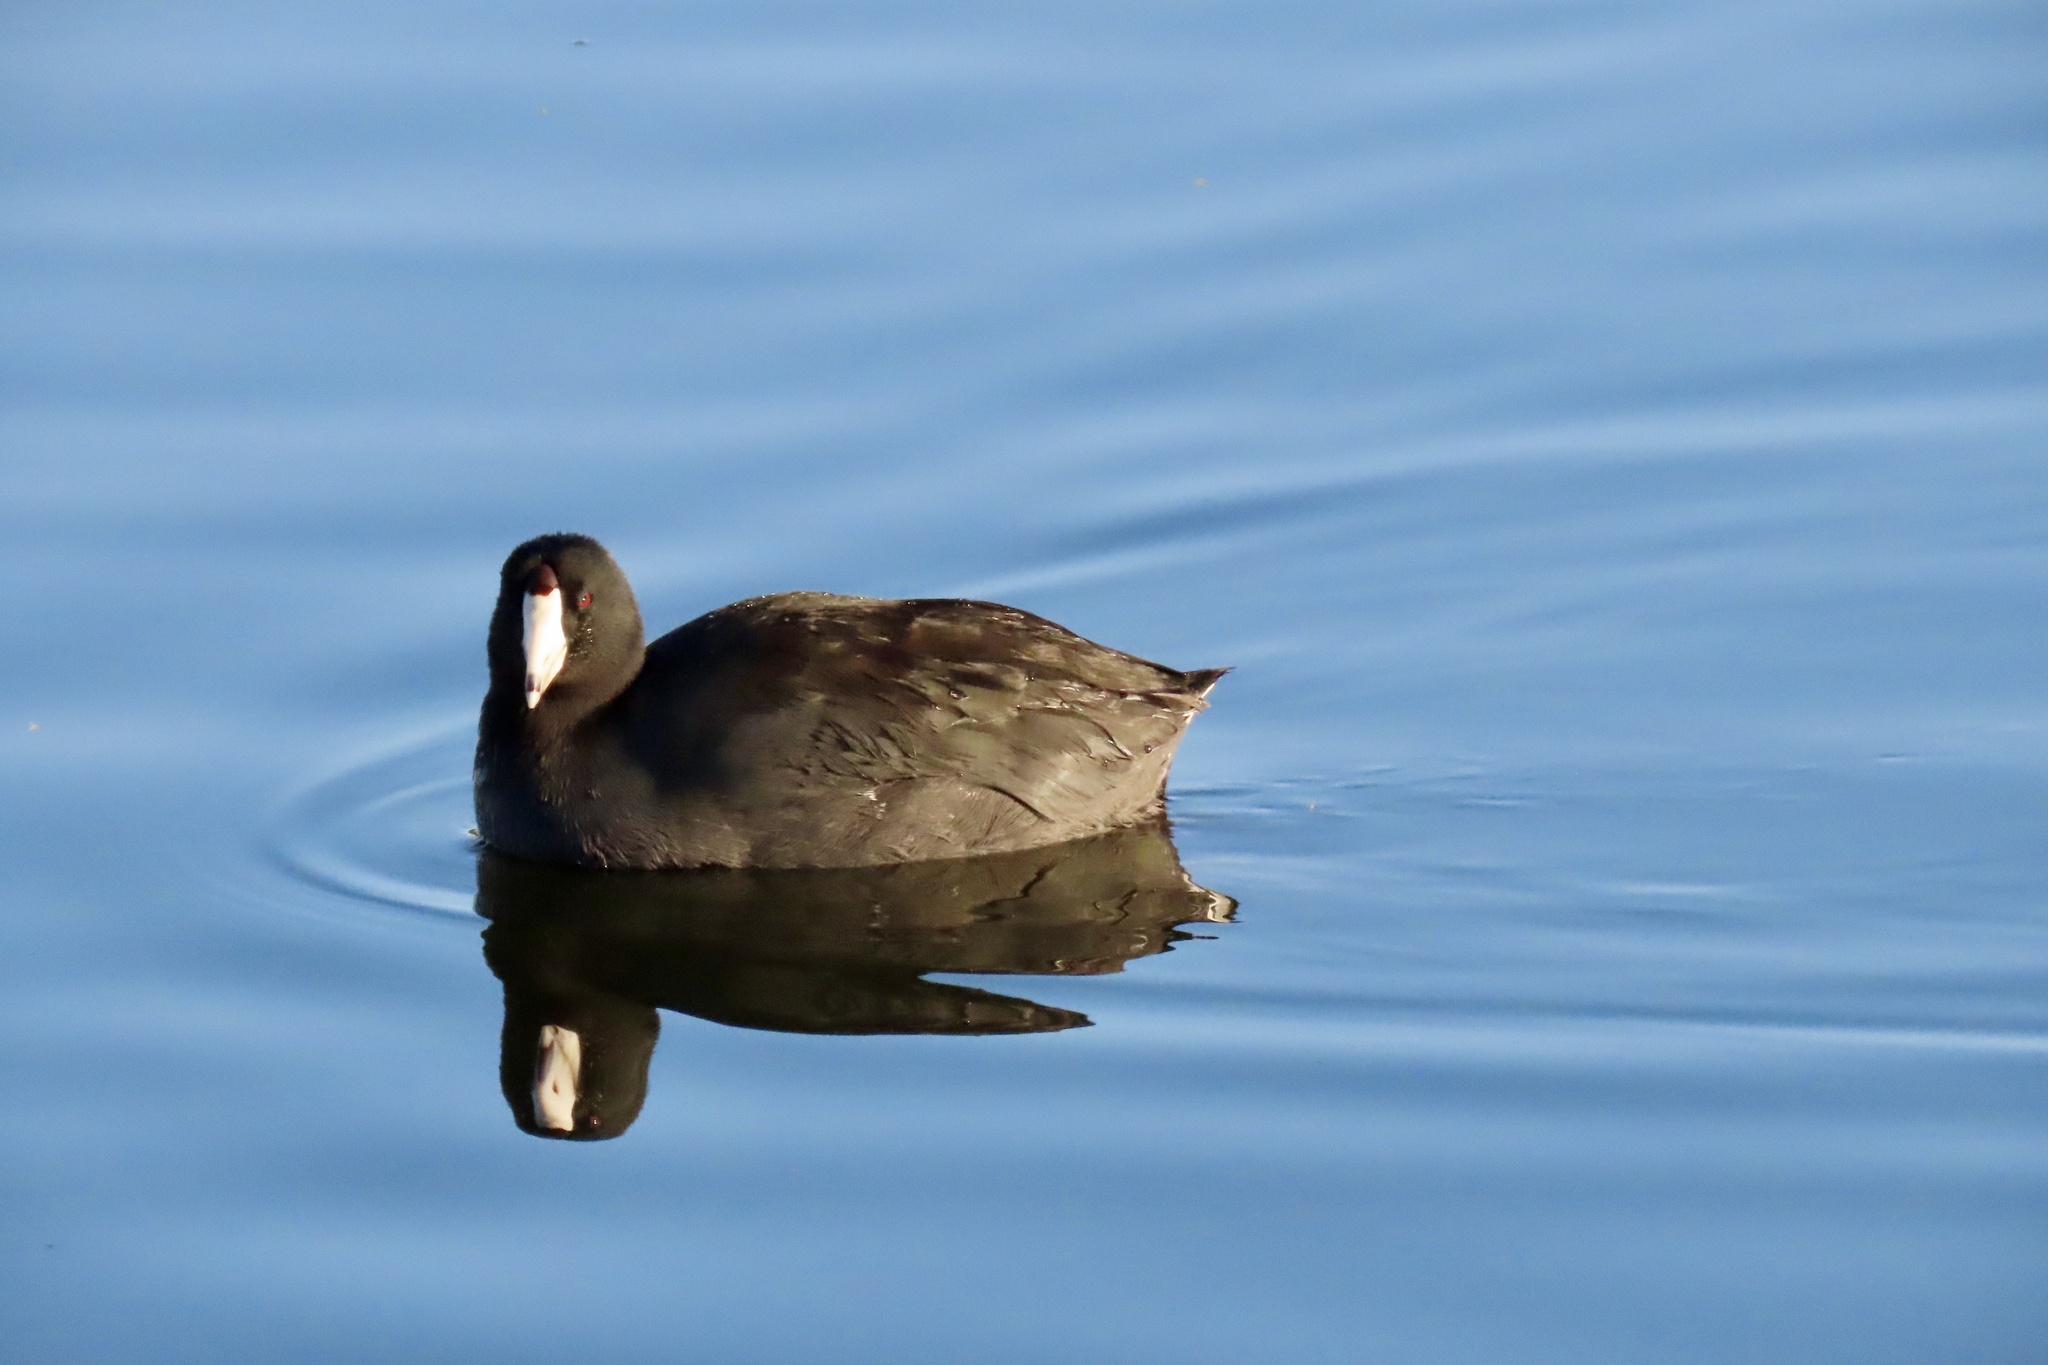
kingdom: Animalia
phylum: Chordata
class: Aves
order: Gruiformes
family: Rallidae
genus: Fulica
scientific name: Fulica americana
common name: American coot
